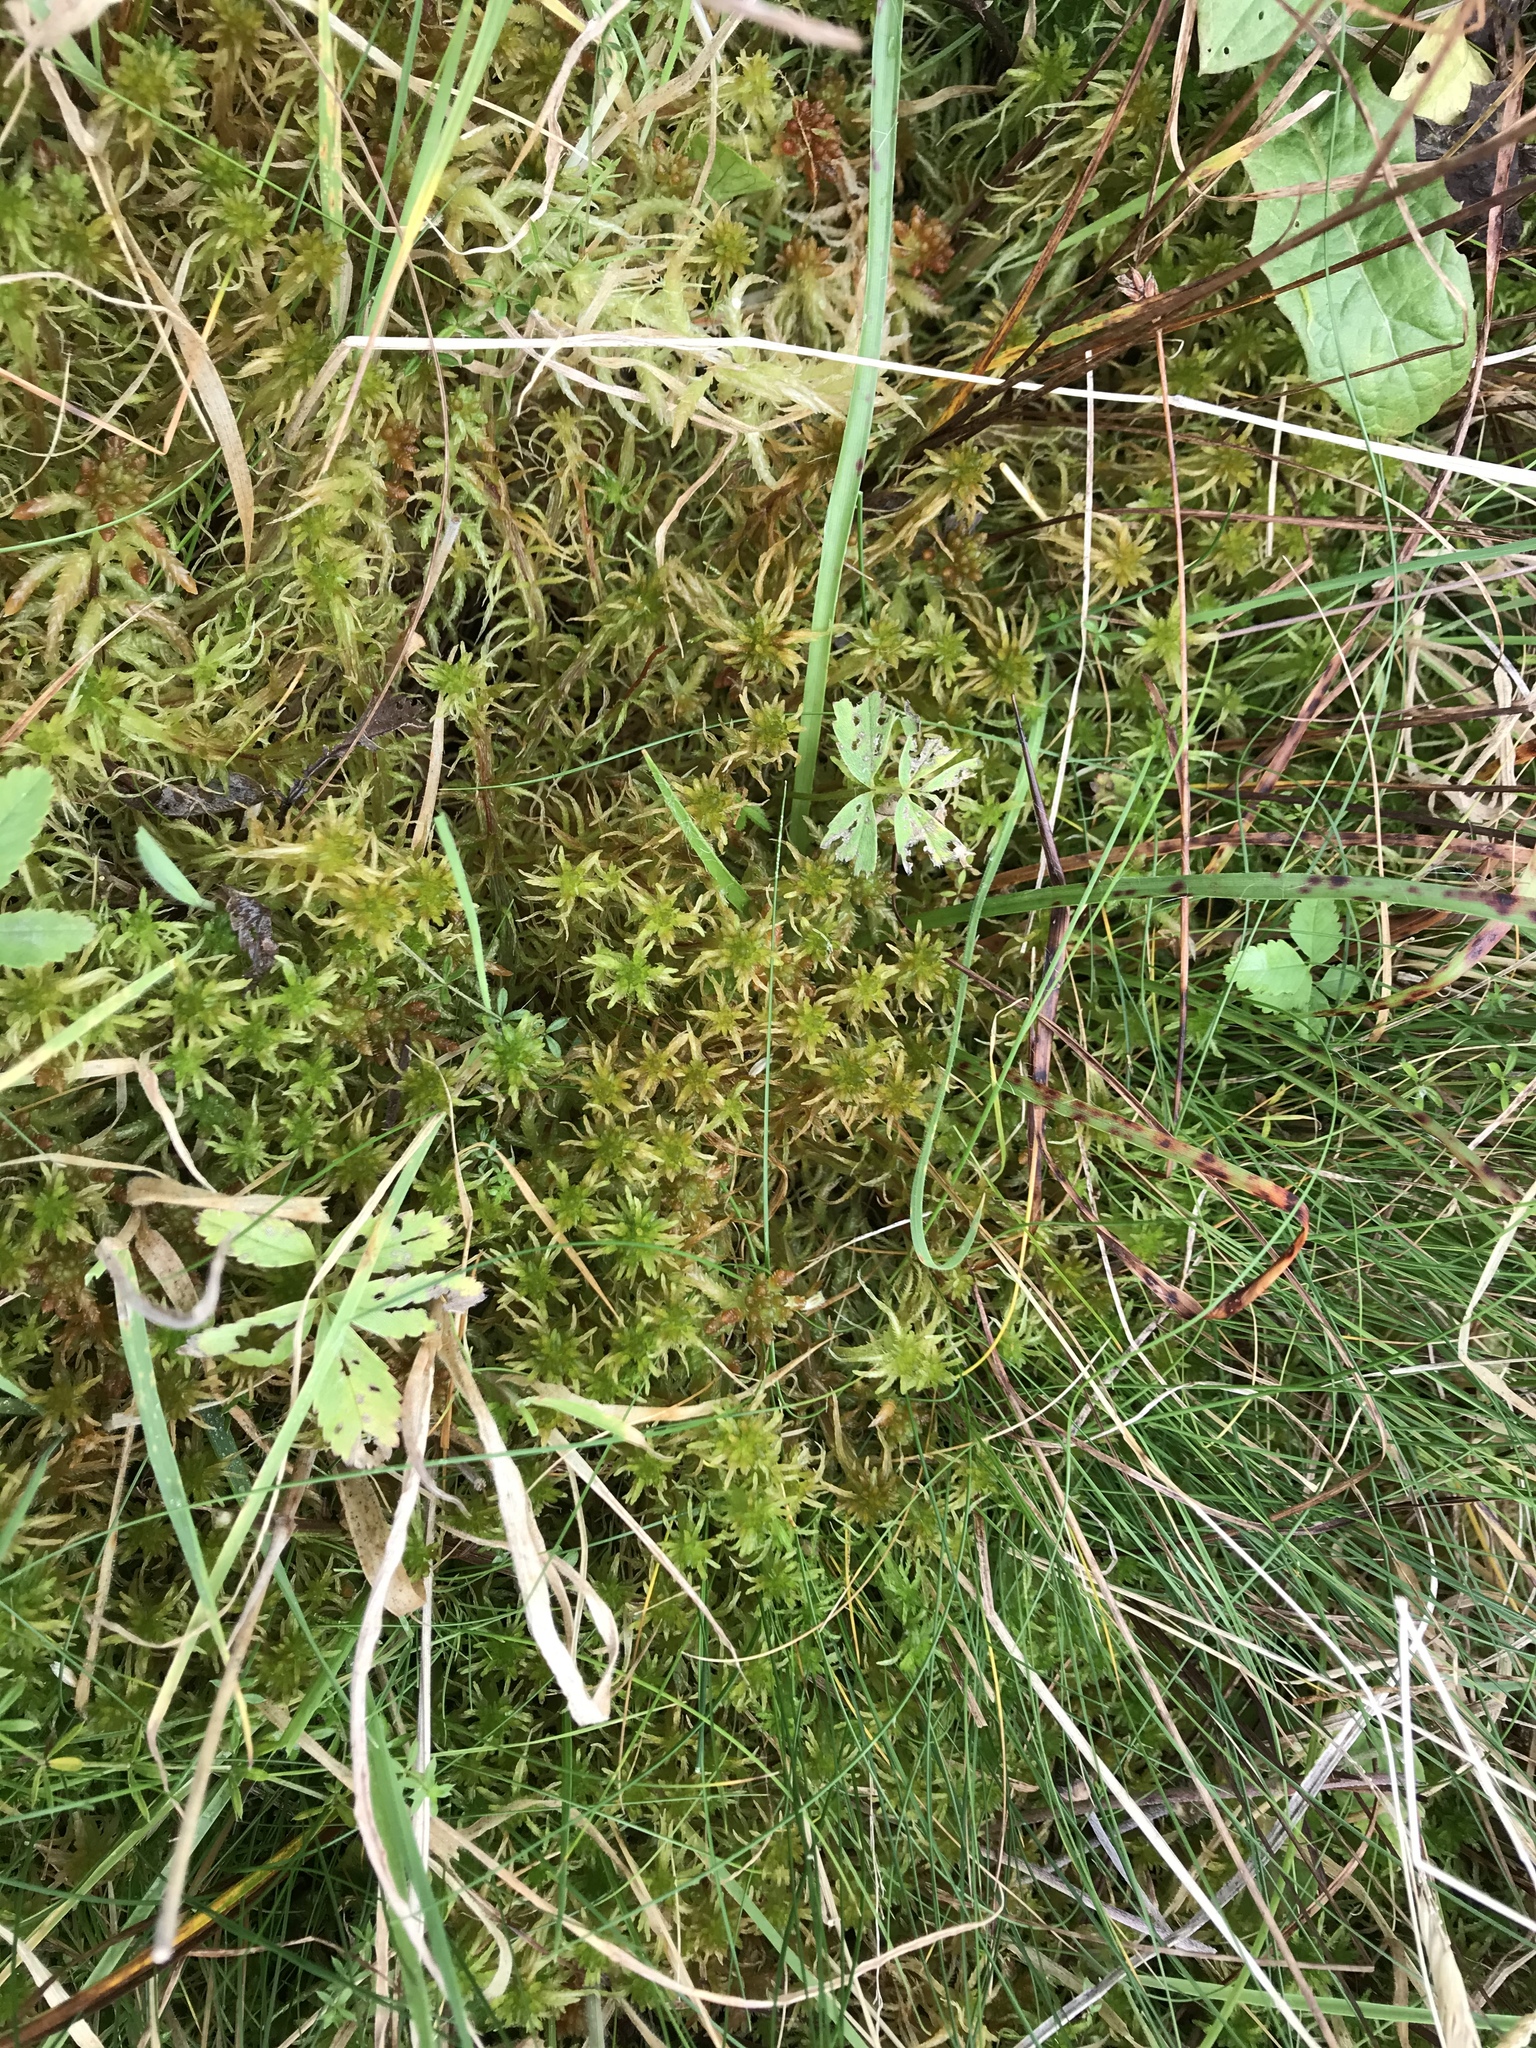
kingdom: Plantae
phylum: Bryophyta
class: Sphagnopsida
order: Sphagnales
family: Sphagnaceae
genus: Sphagnum
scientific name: Sphagnum teres
